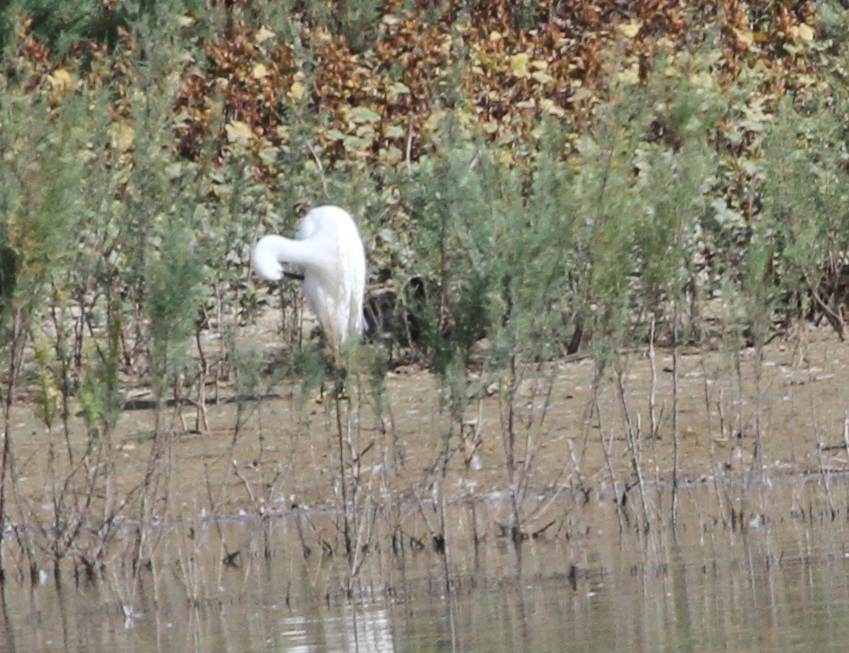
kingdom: Animalia
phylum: Chordata
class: Aves
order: Pelecaniformes
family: Ardeidae
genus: Egretta
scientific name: Egretta garzetta
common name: Little egret
